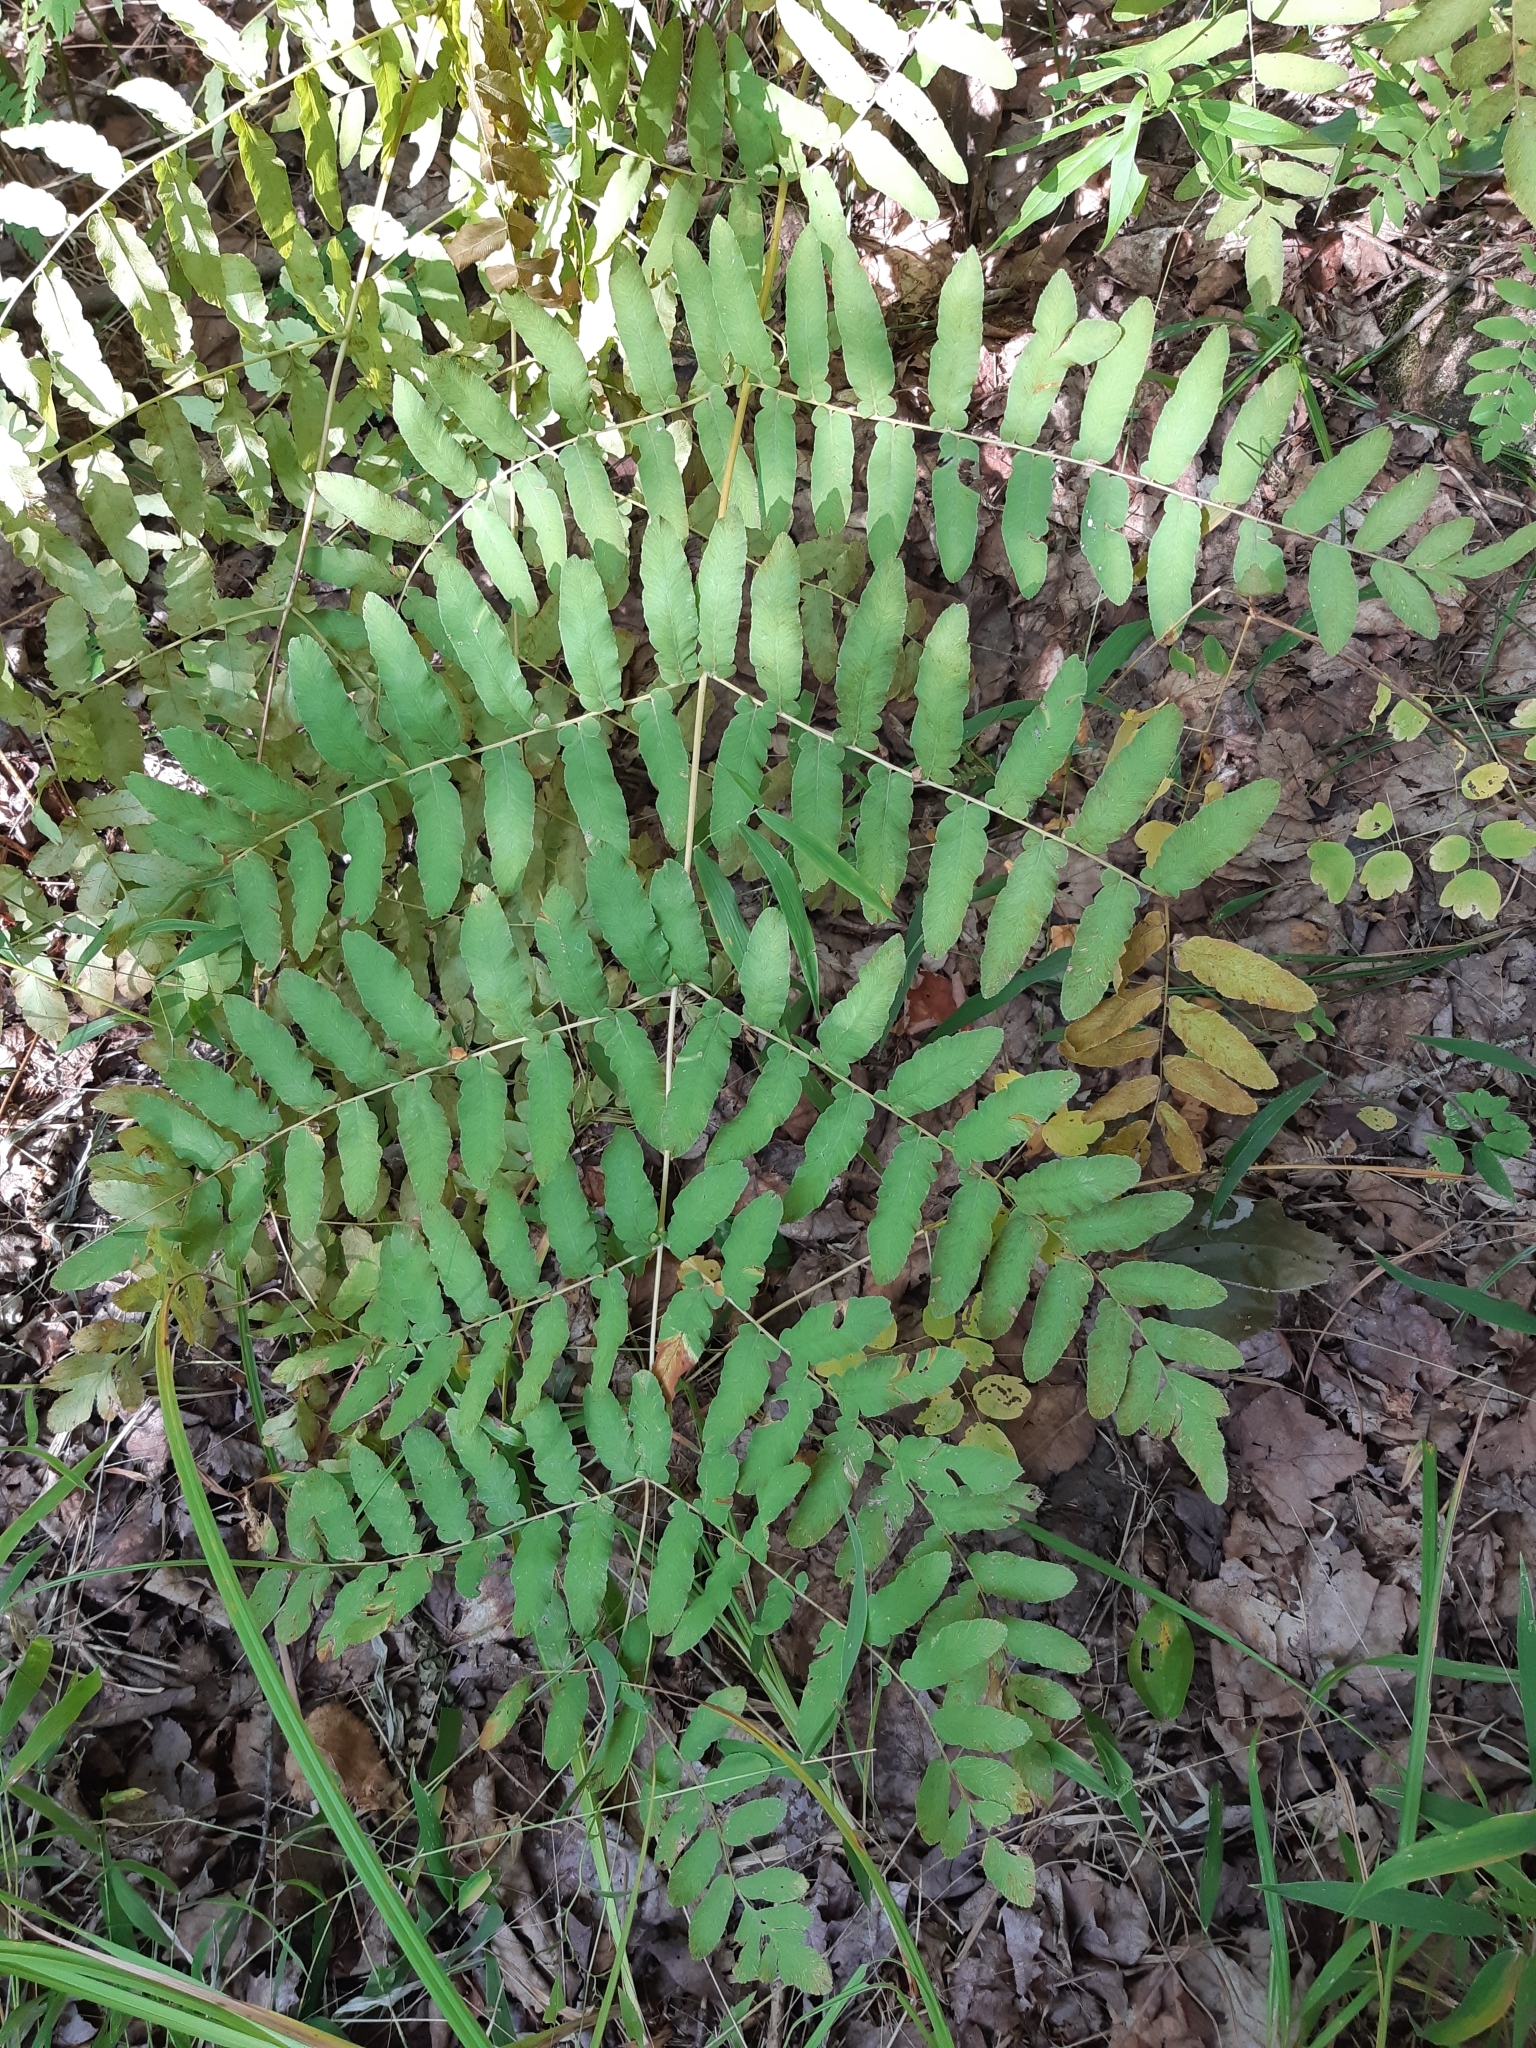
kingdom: Plantae
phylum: Tracheophyta
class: Polypodiopsida
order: Osmundales
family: Osmundaceae
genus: Osmunda
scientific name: Osmunda spectabilis
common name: American royal fern
